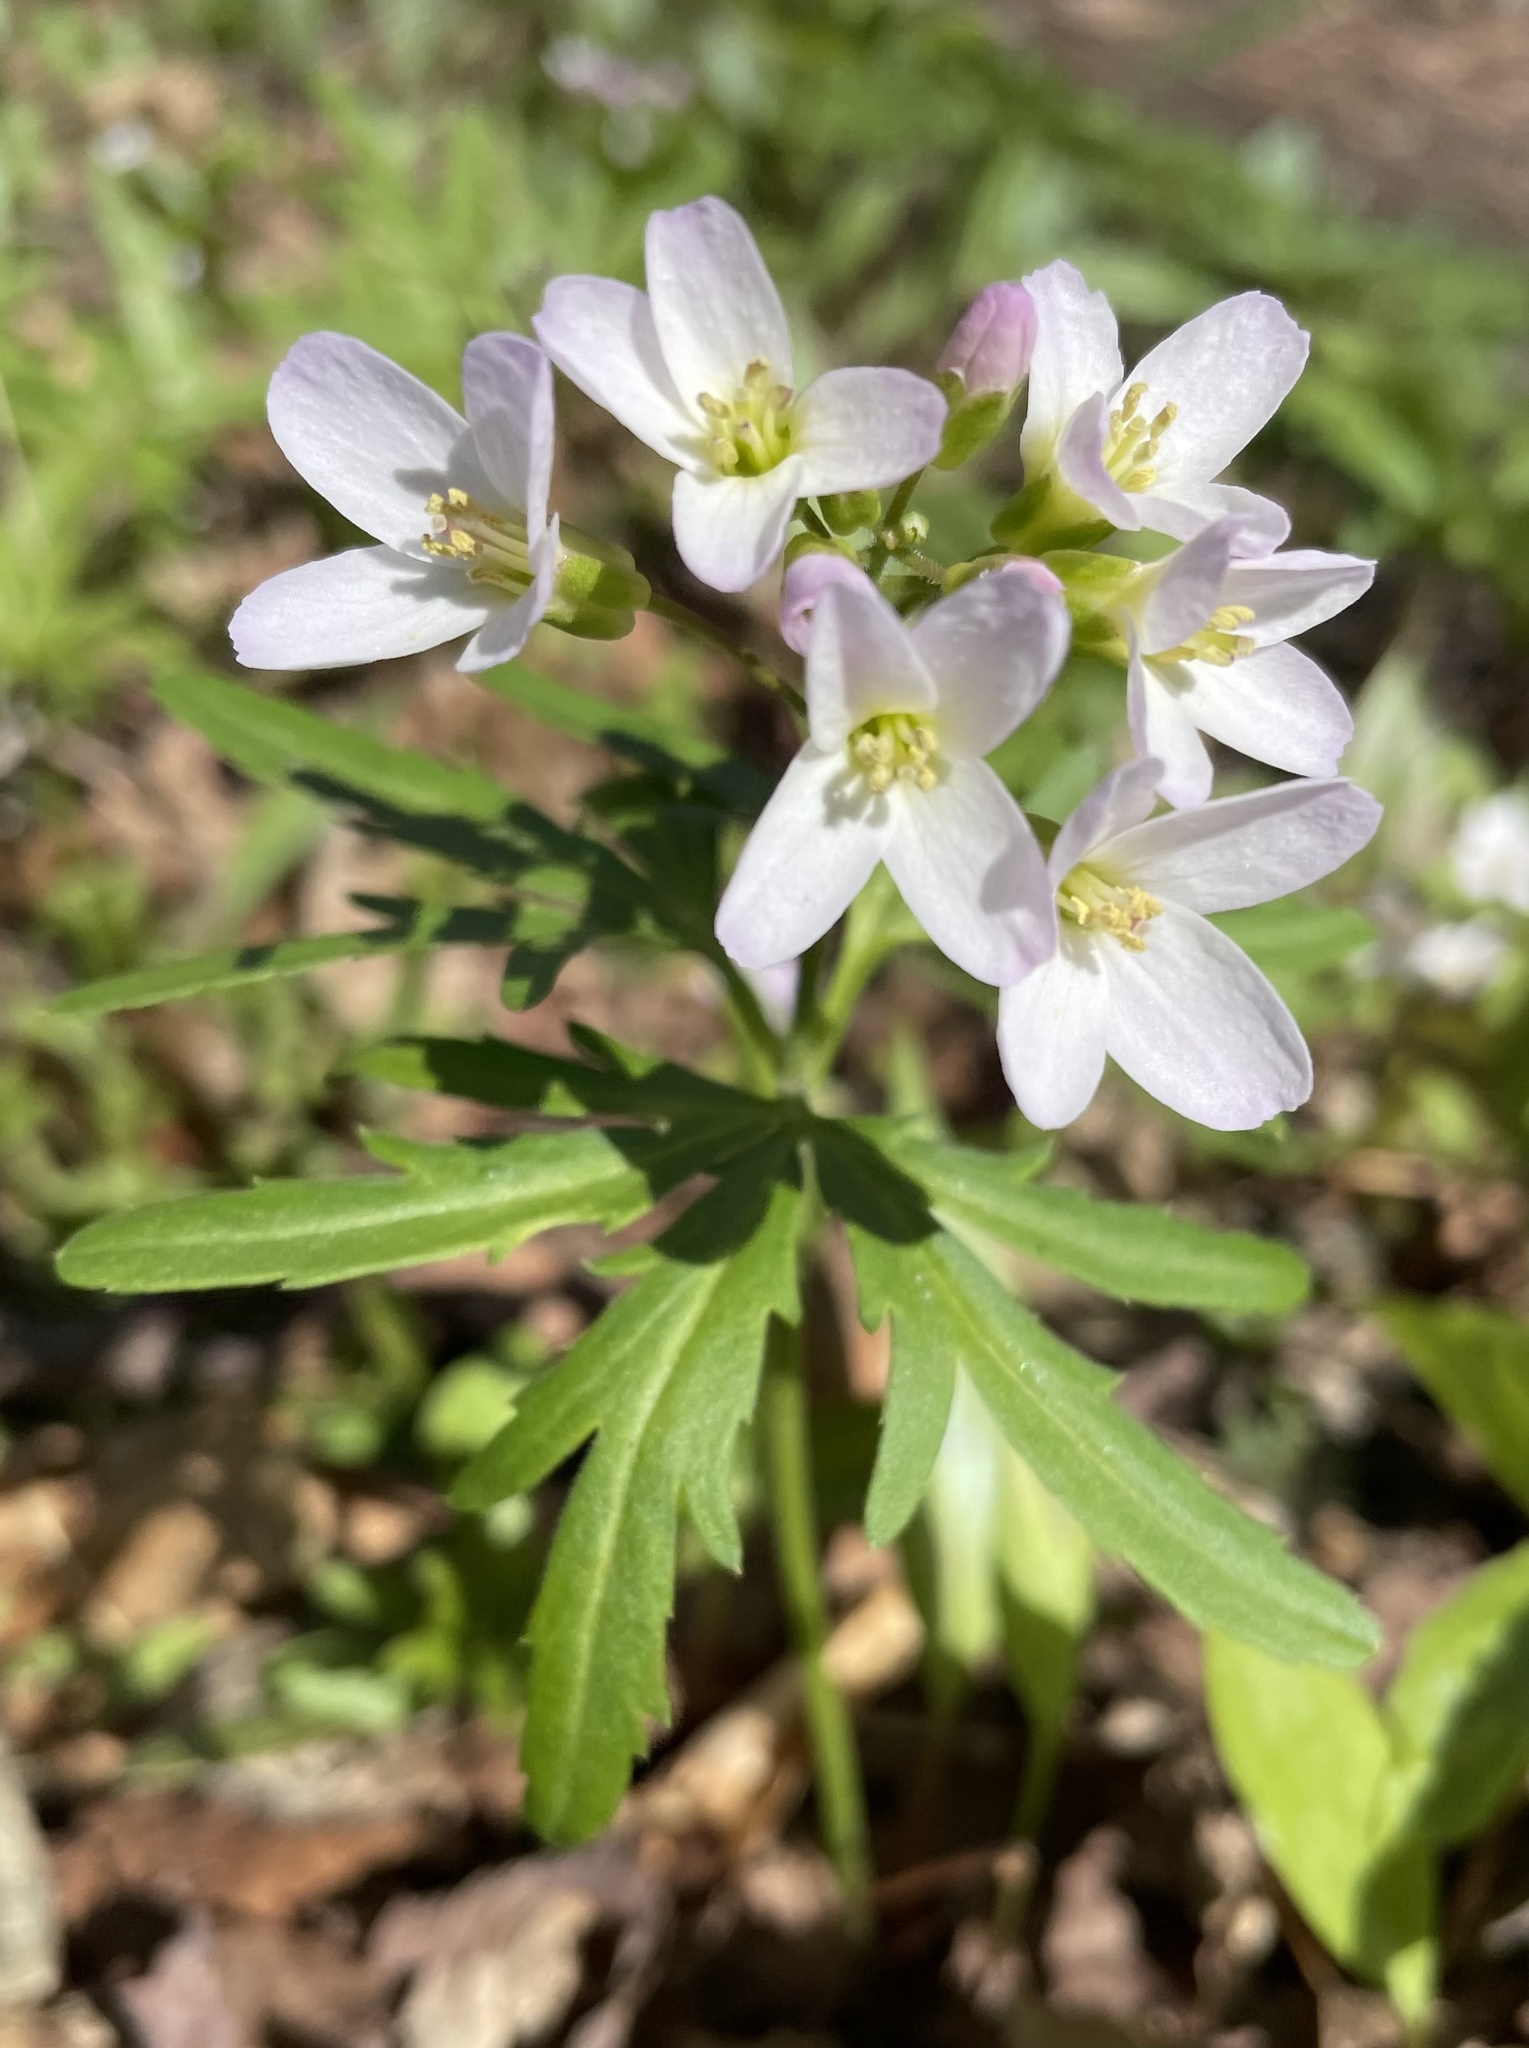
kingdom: Plantae
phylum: Tracheophyta
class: Magnoliopsida
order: Brassicales
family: Brassicaceae
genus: Cardamine
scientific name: Cardamine concatenata
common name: Cut-leaf toothcup
